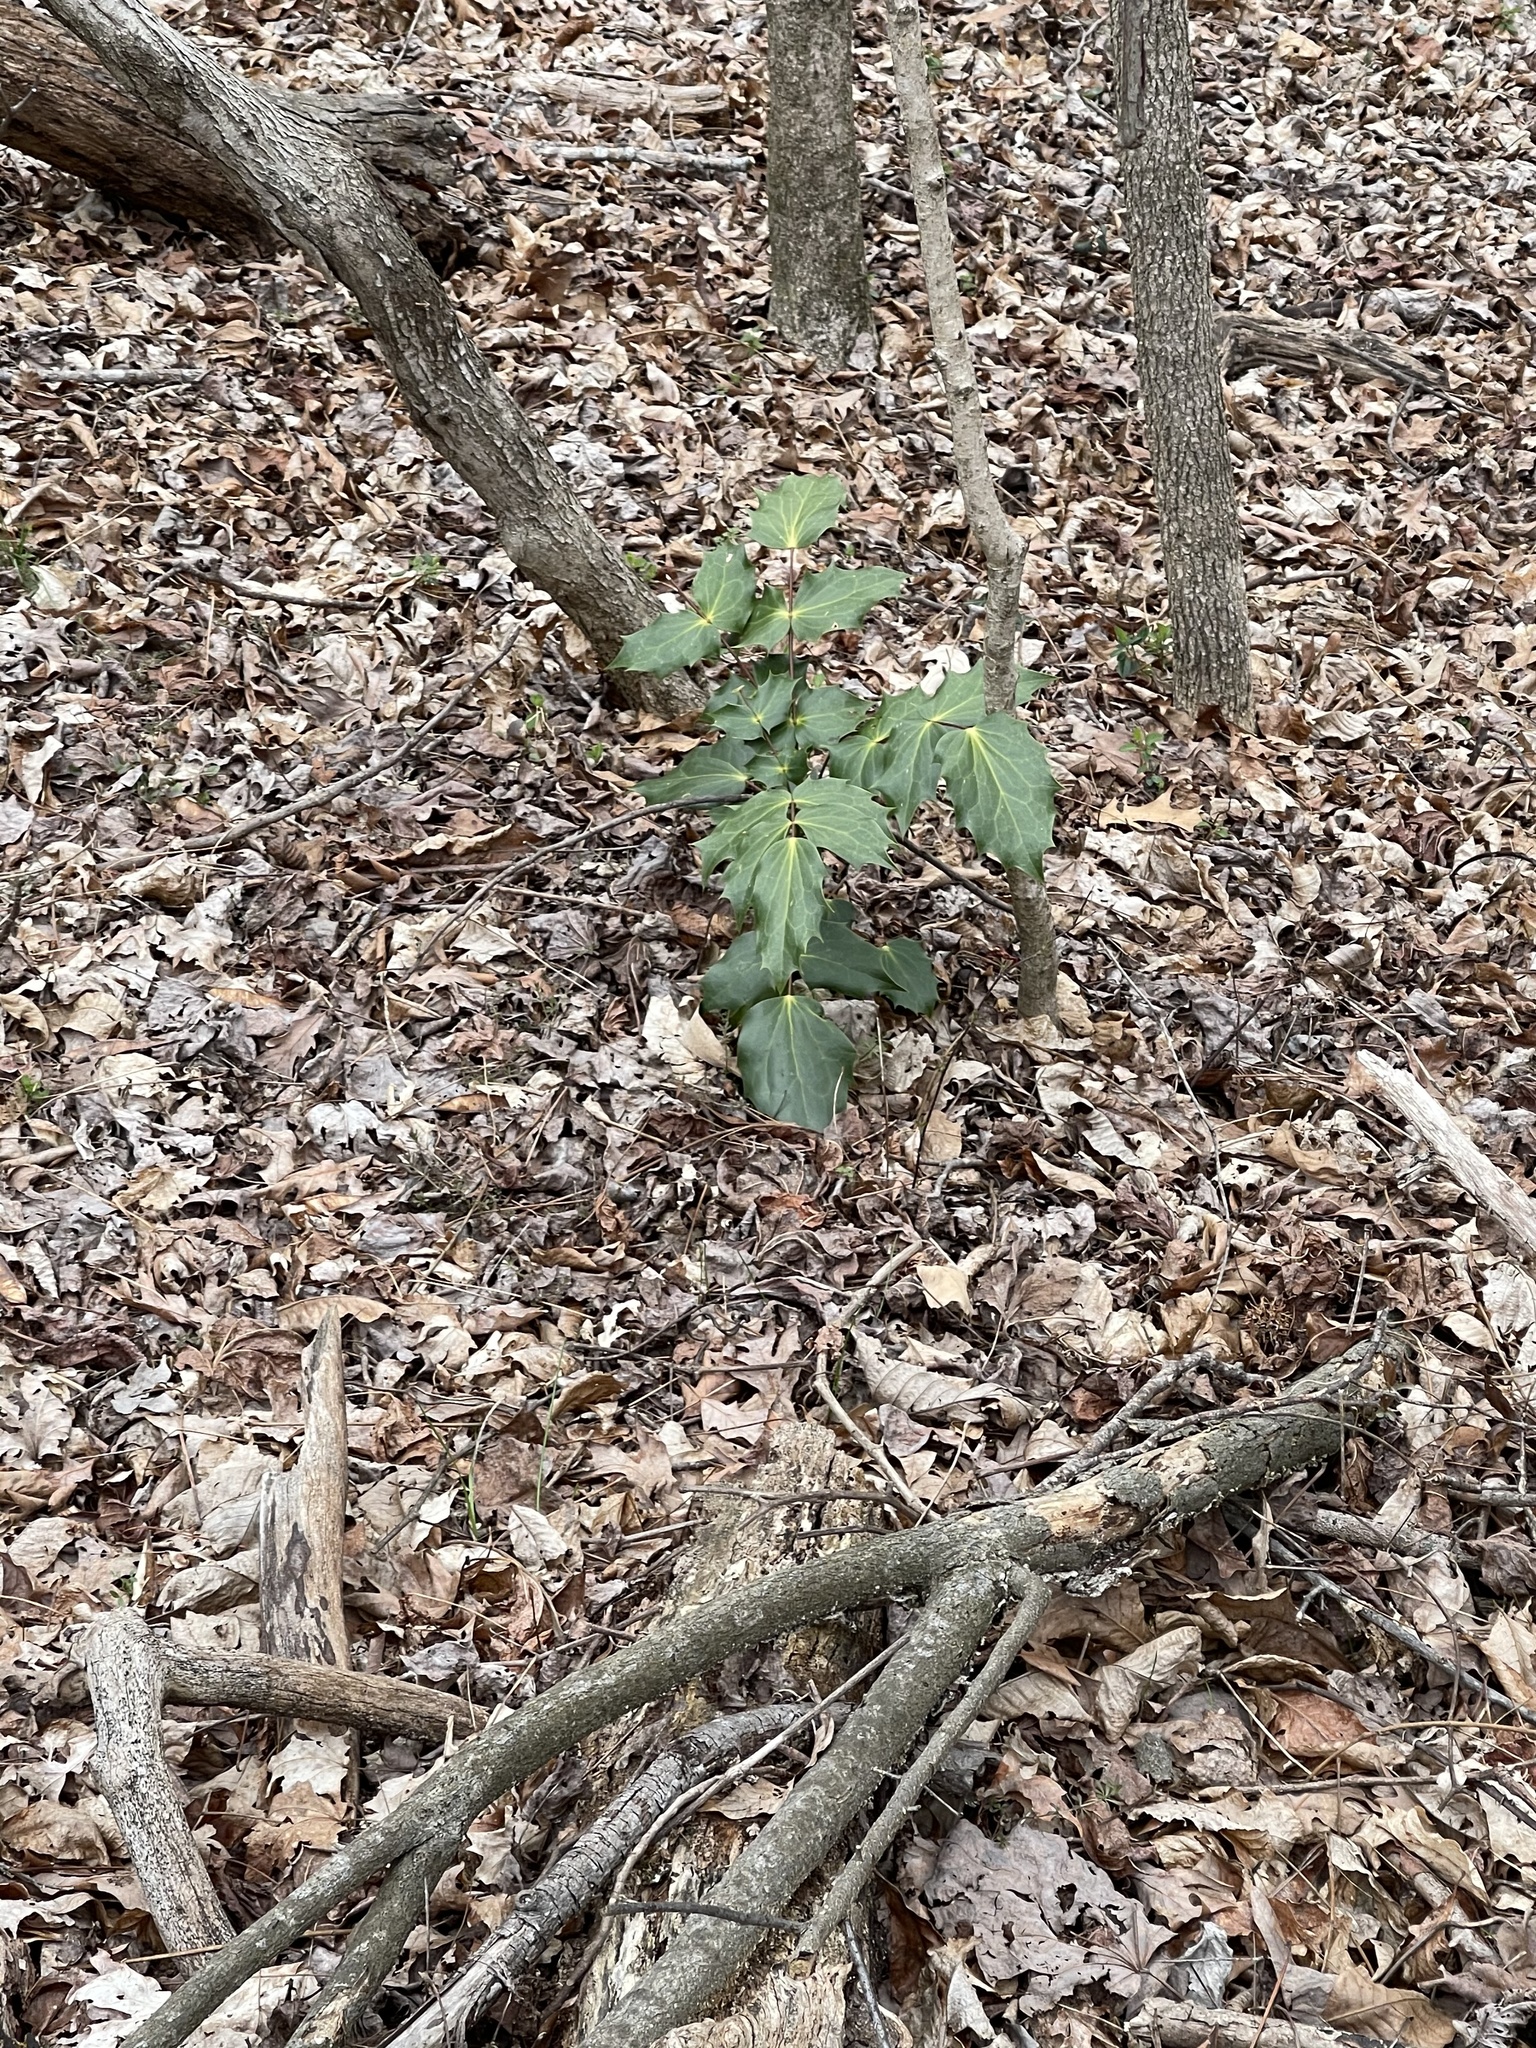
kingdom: Plantae
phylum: Tracheophyta
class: Magnoliopsida
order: Ranunculales
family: Berberidaceae
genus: Mahonia
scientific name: Mahonia bealei
